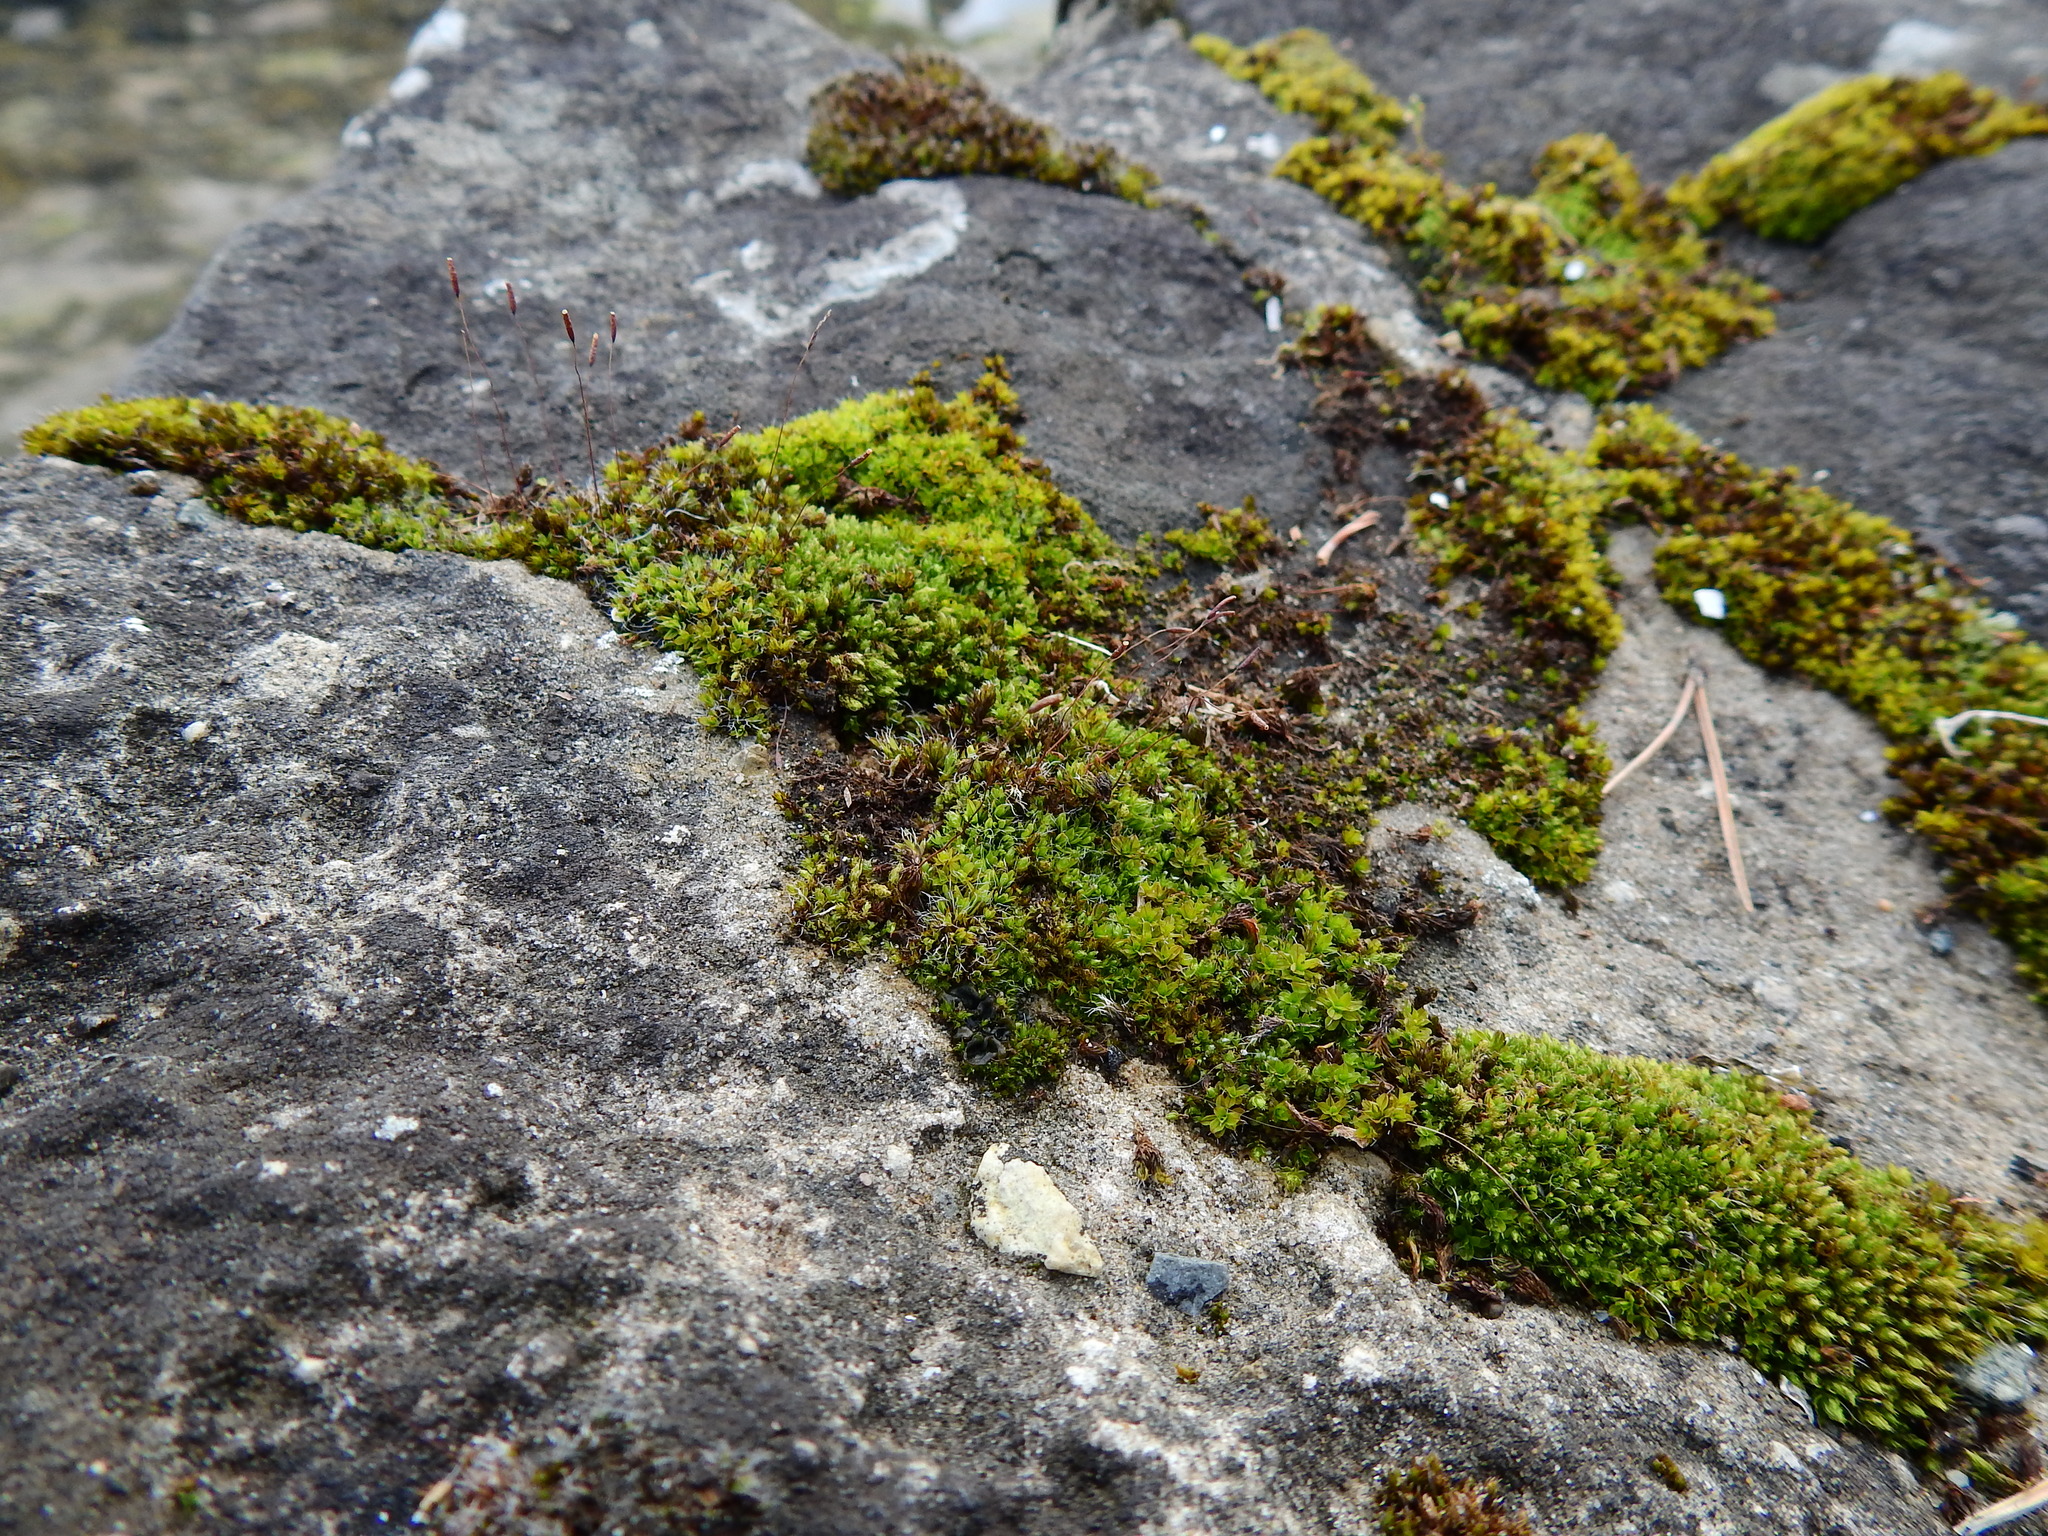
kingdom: Plantae
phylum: Bryophyta
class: Bryopsida
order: Pottiales
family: Pottiaceae
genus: Tortula
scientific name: Tortula muralis
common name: Wall screw-moss
